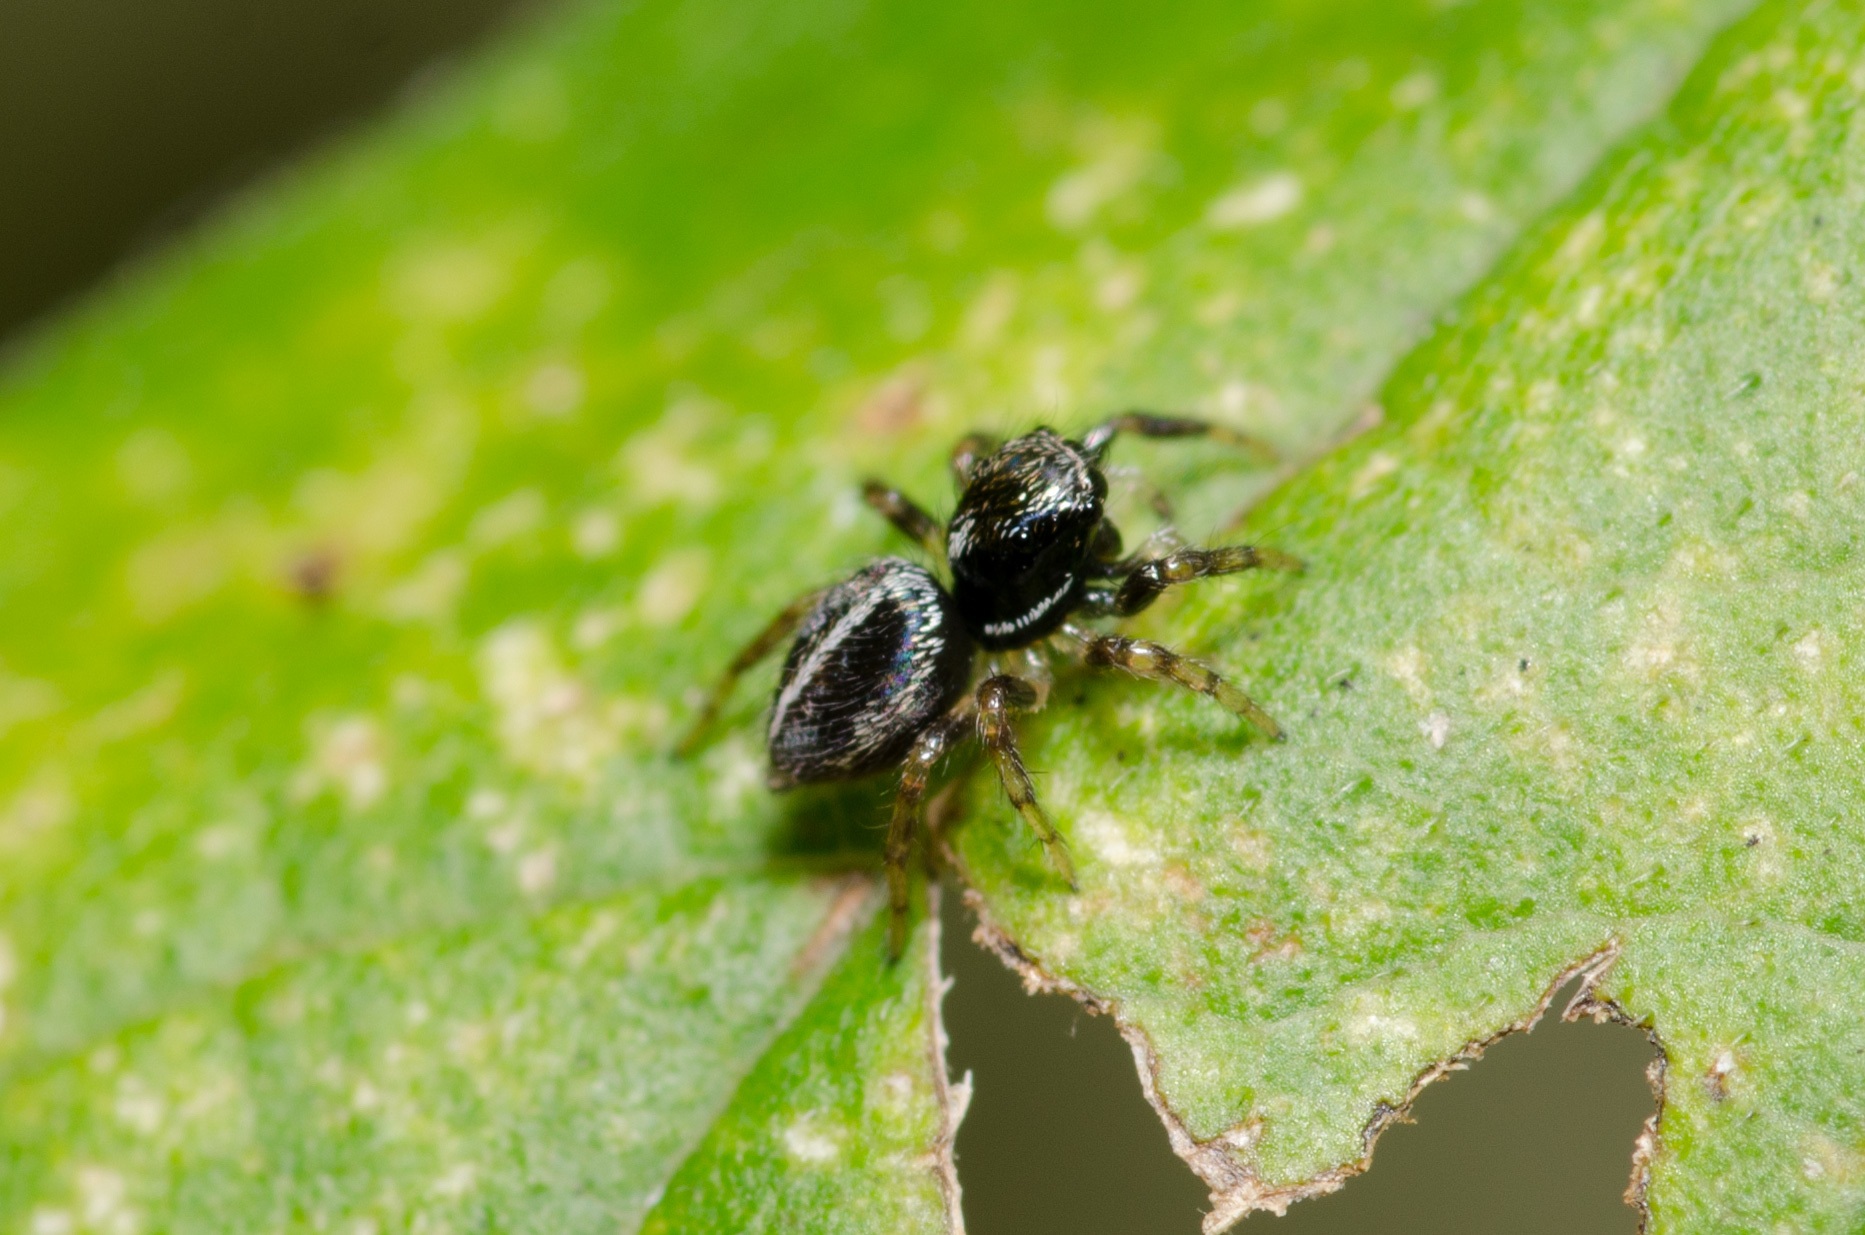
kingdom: Animalia
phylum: Arthropoda
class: Arachnida
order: Araneae
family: Salticidae
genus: Anasaitis
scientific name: Anasaitis canosa
